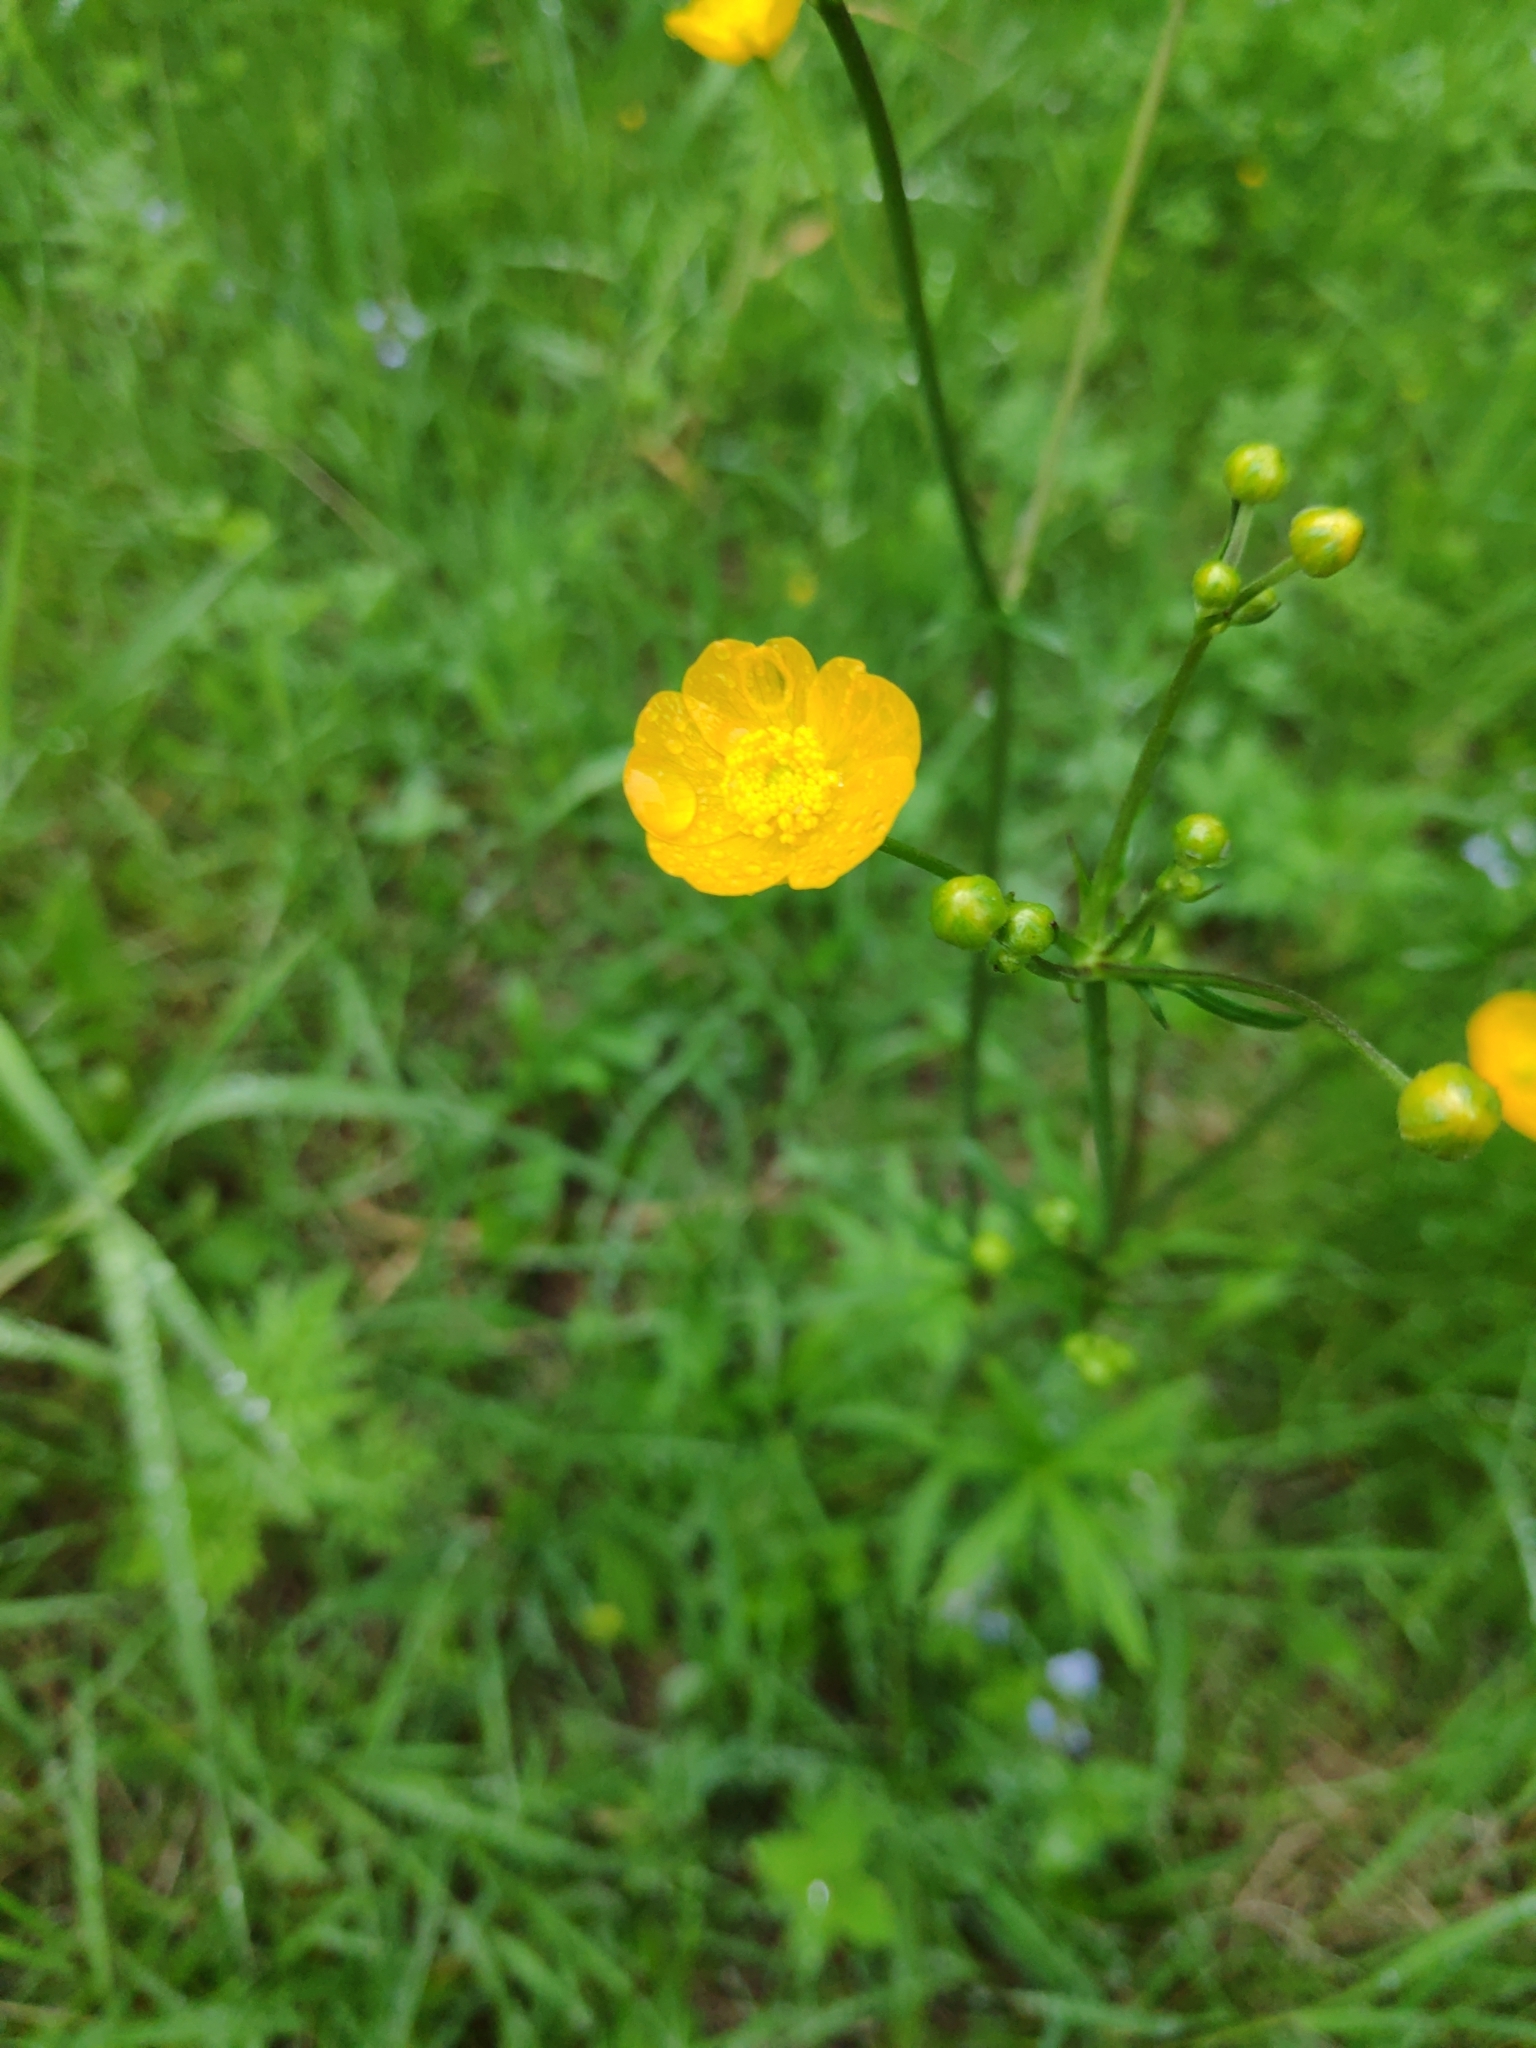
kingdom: Plantae
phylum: Tracheophyta
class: Magnoliopsida
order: Ranunculales
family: Ranunculaceae
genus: Ranunculus
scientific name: Ranunculus acris
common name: Meadow buttercup
